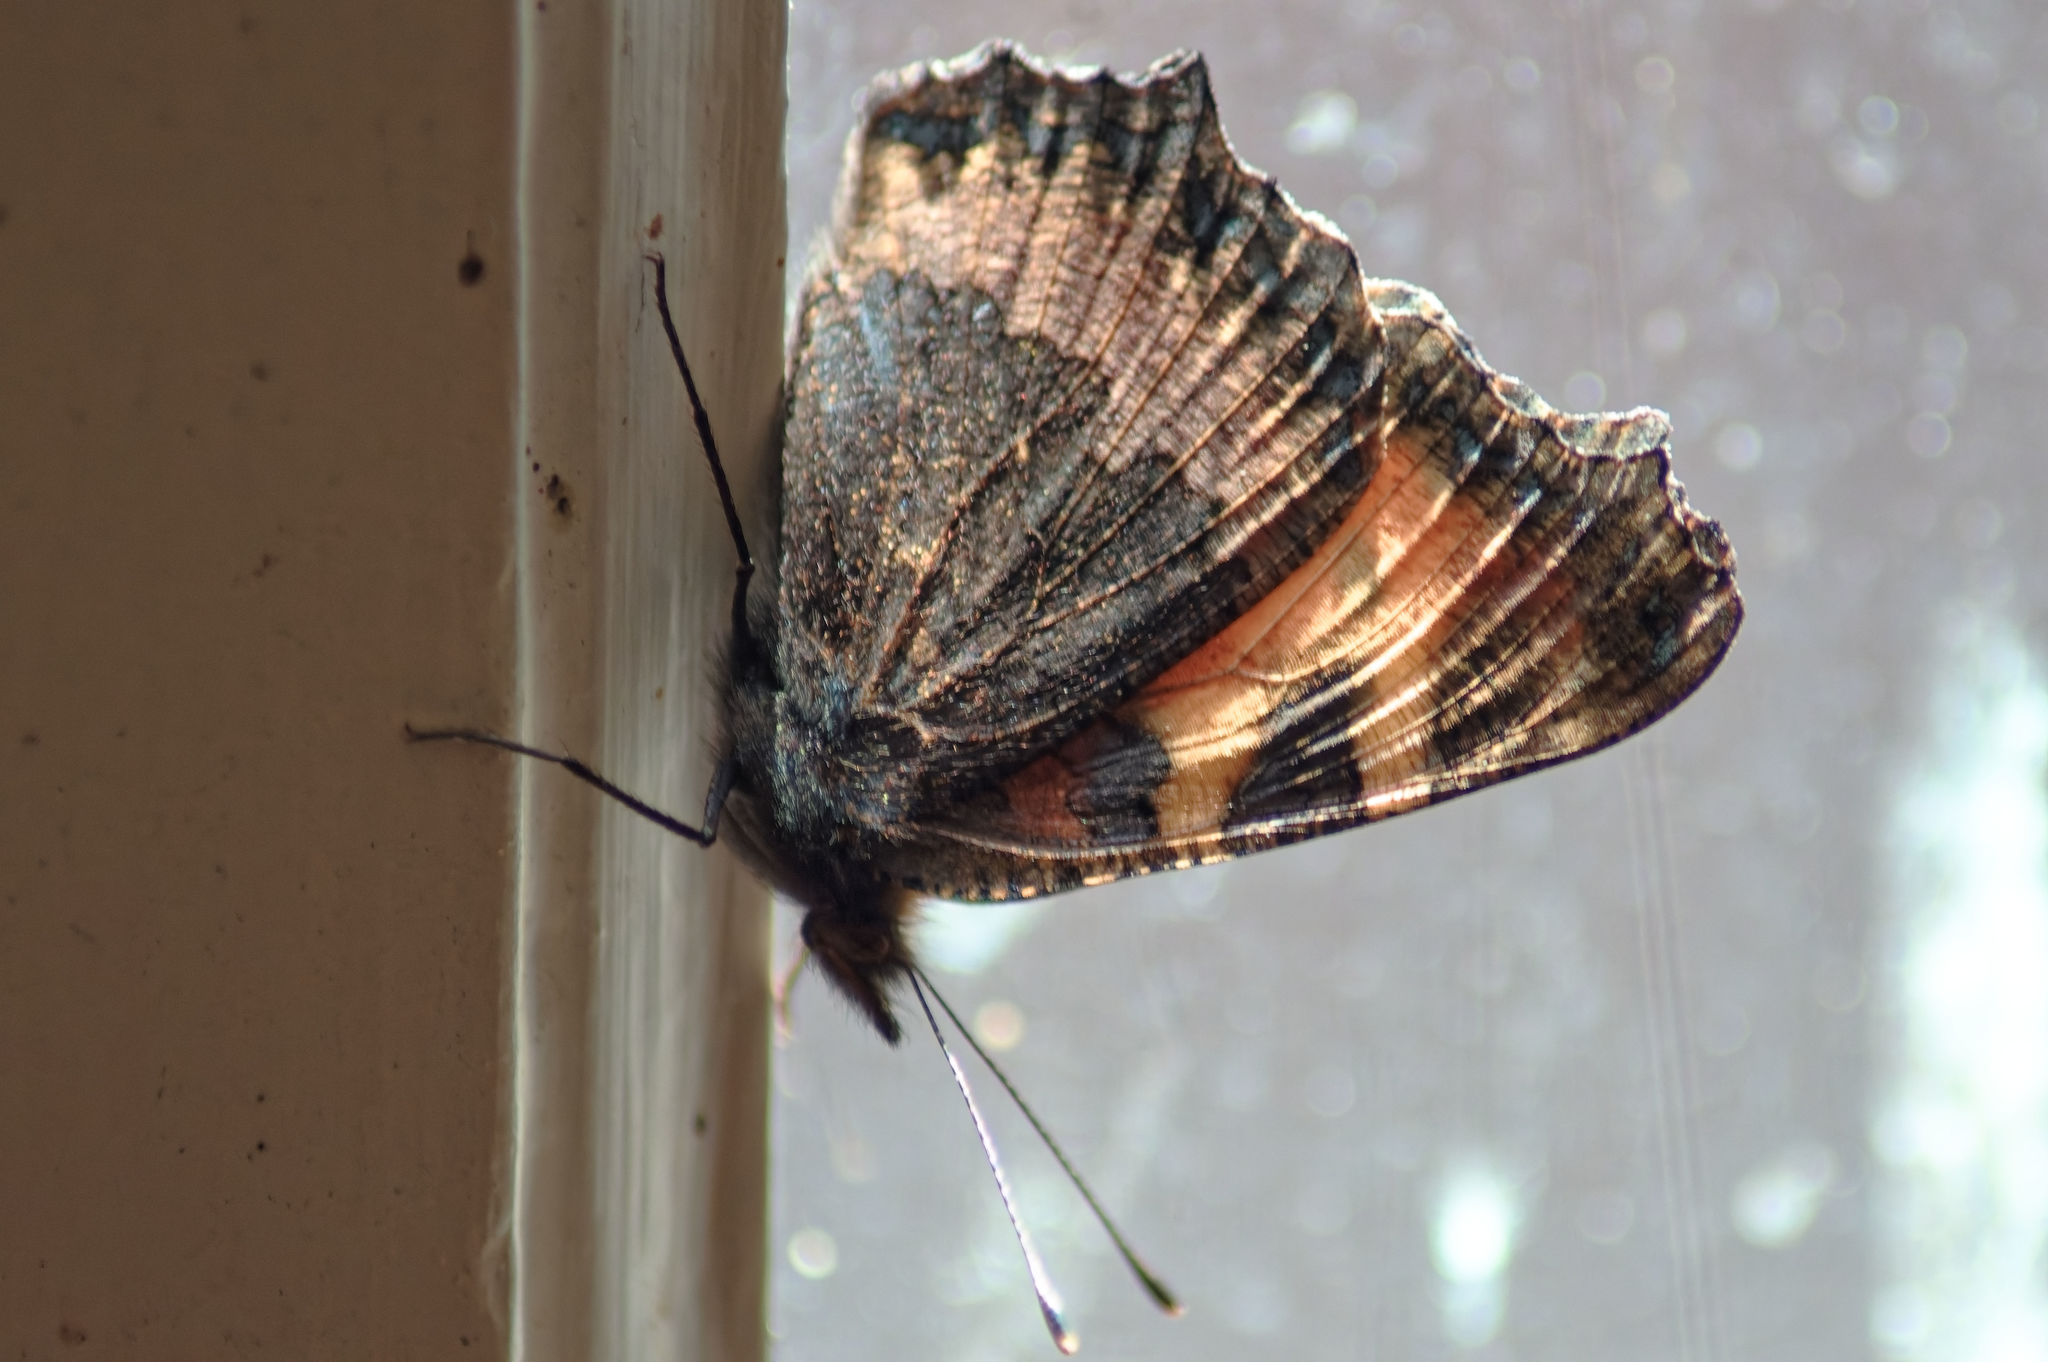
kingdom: Animalia
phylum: Arthropoda
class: Insecta
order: Lepidoptera
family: Nymphalidae
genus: Aglais
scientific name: Aglais urticae
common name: Small tortoiseshell
